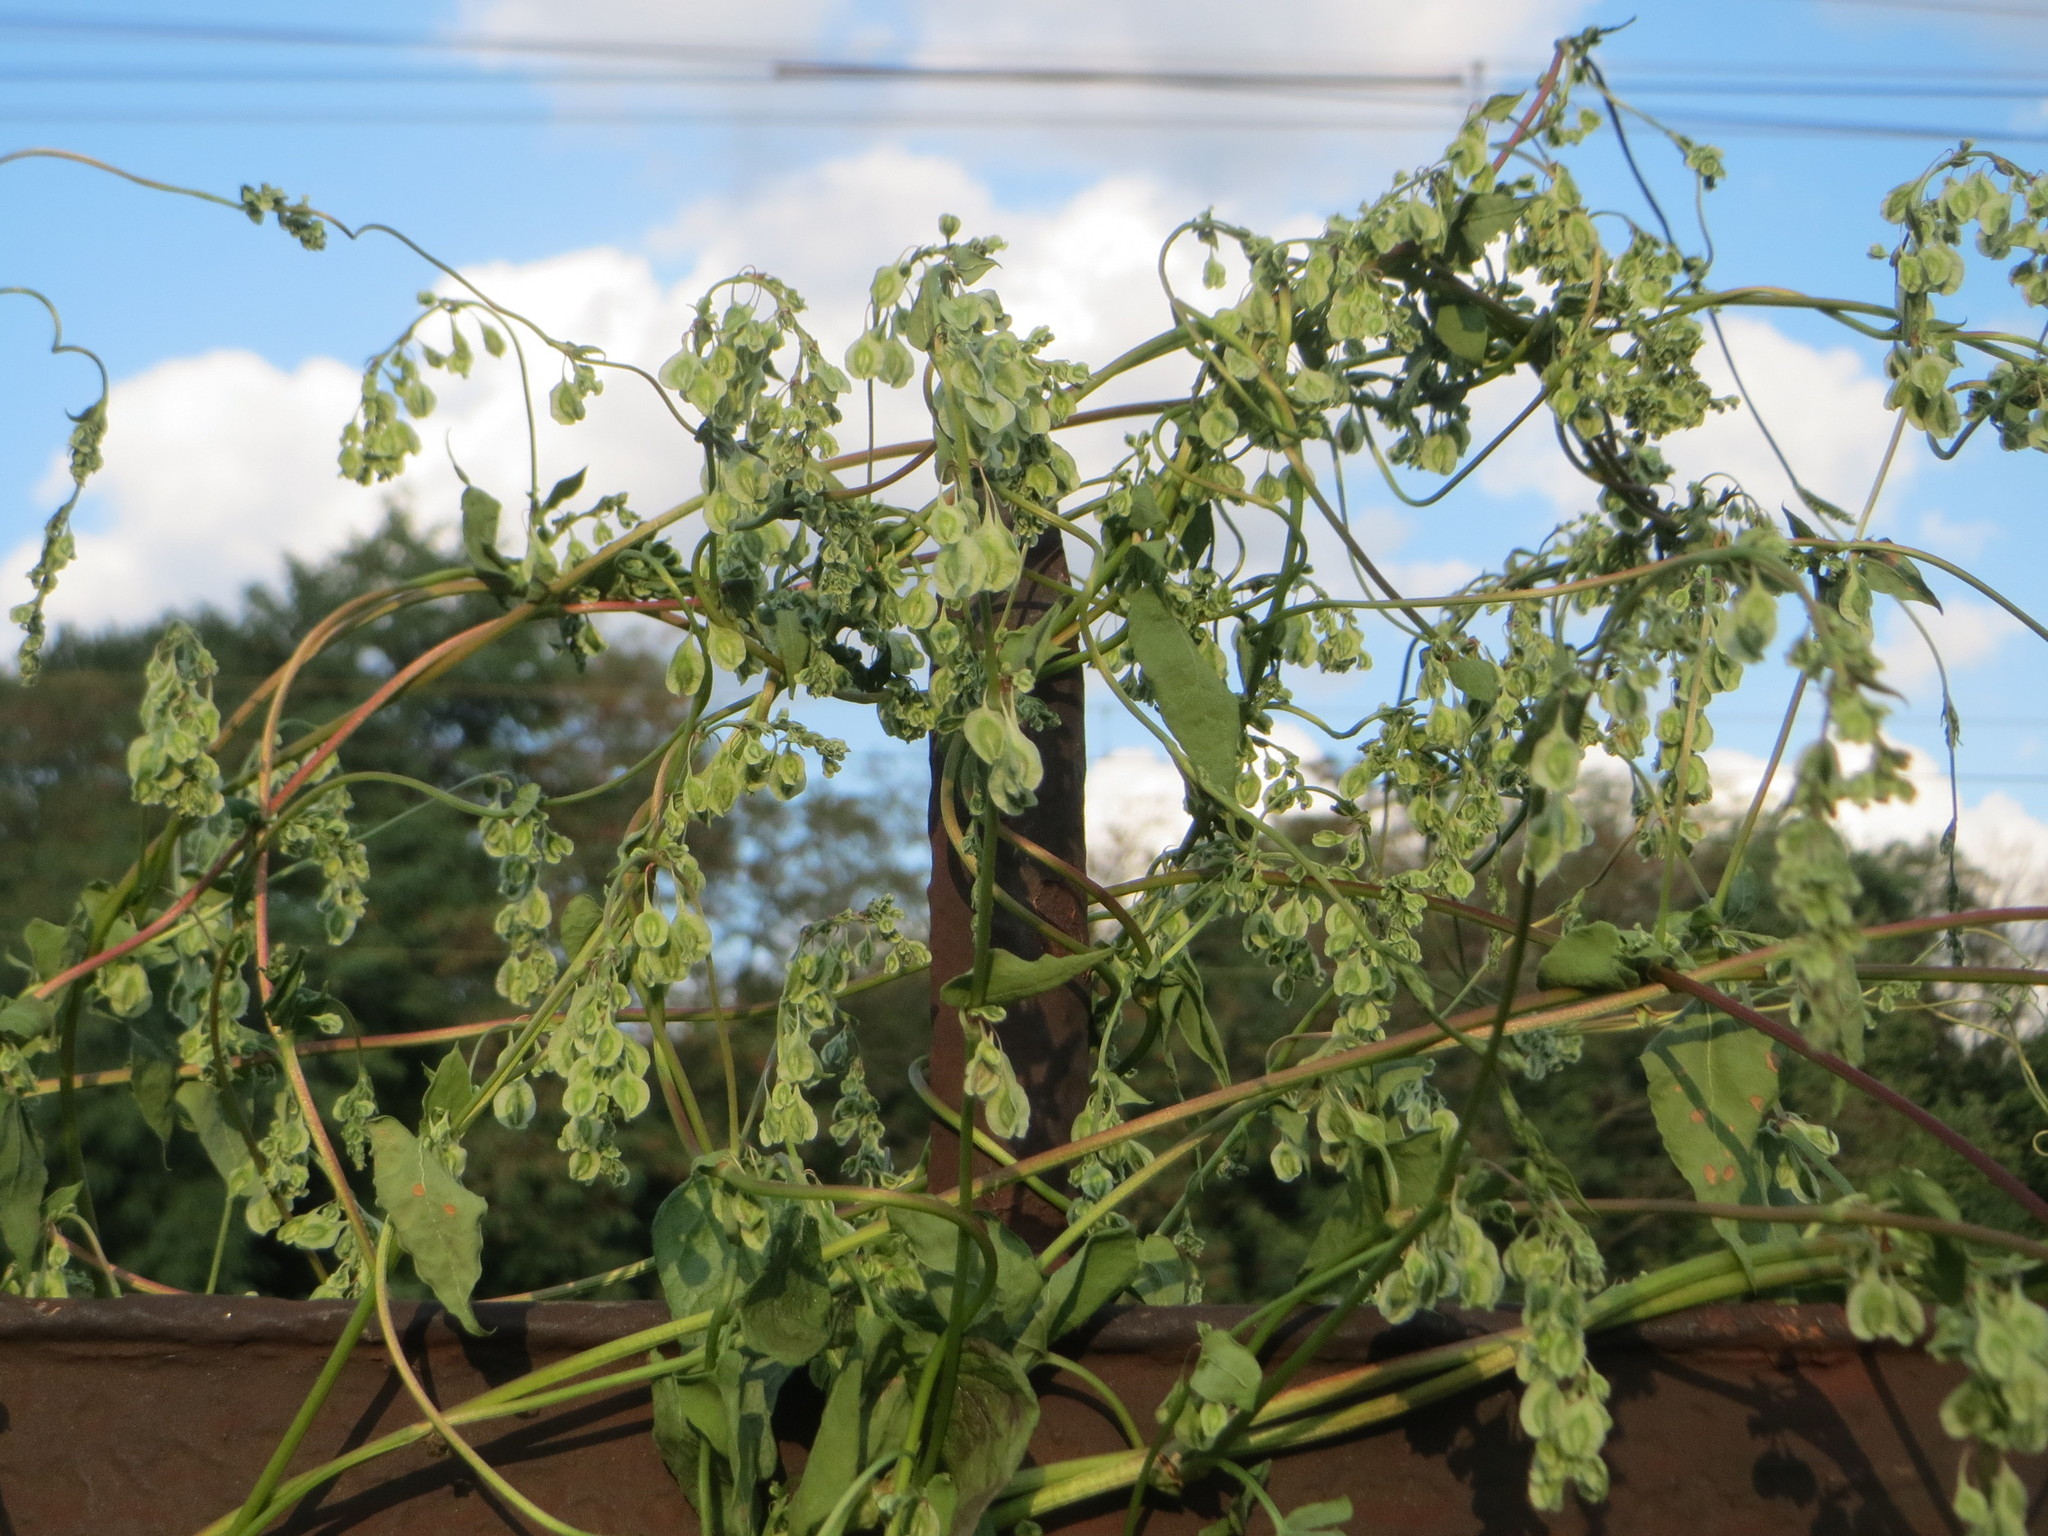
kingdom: Plantae
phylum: Tracheophyta
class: Magnoliopsida
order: Caryophyllales
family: Polygonaceae
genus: Fallopia
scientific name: Fallopia dumetorum
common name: Copse-bindweed
